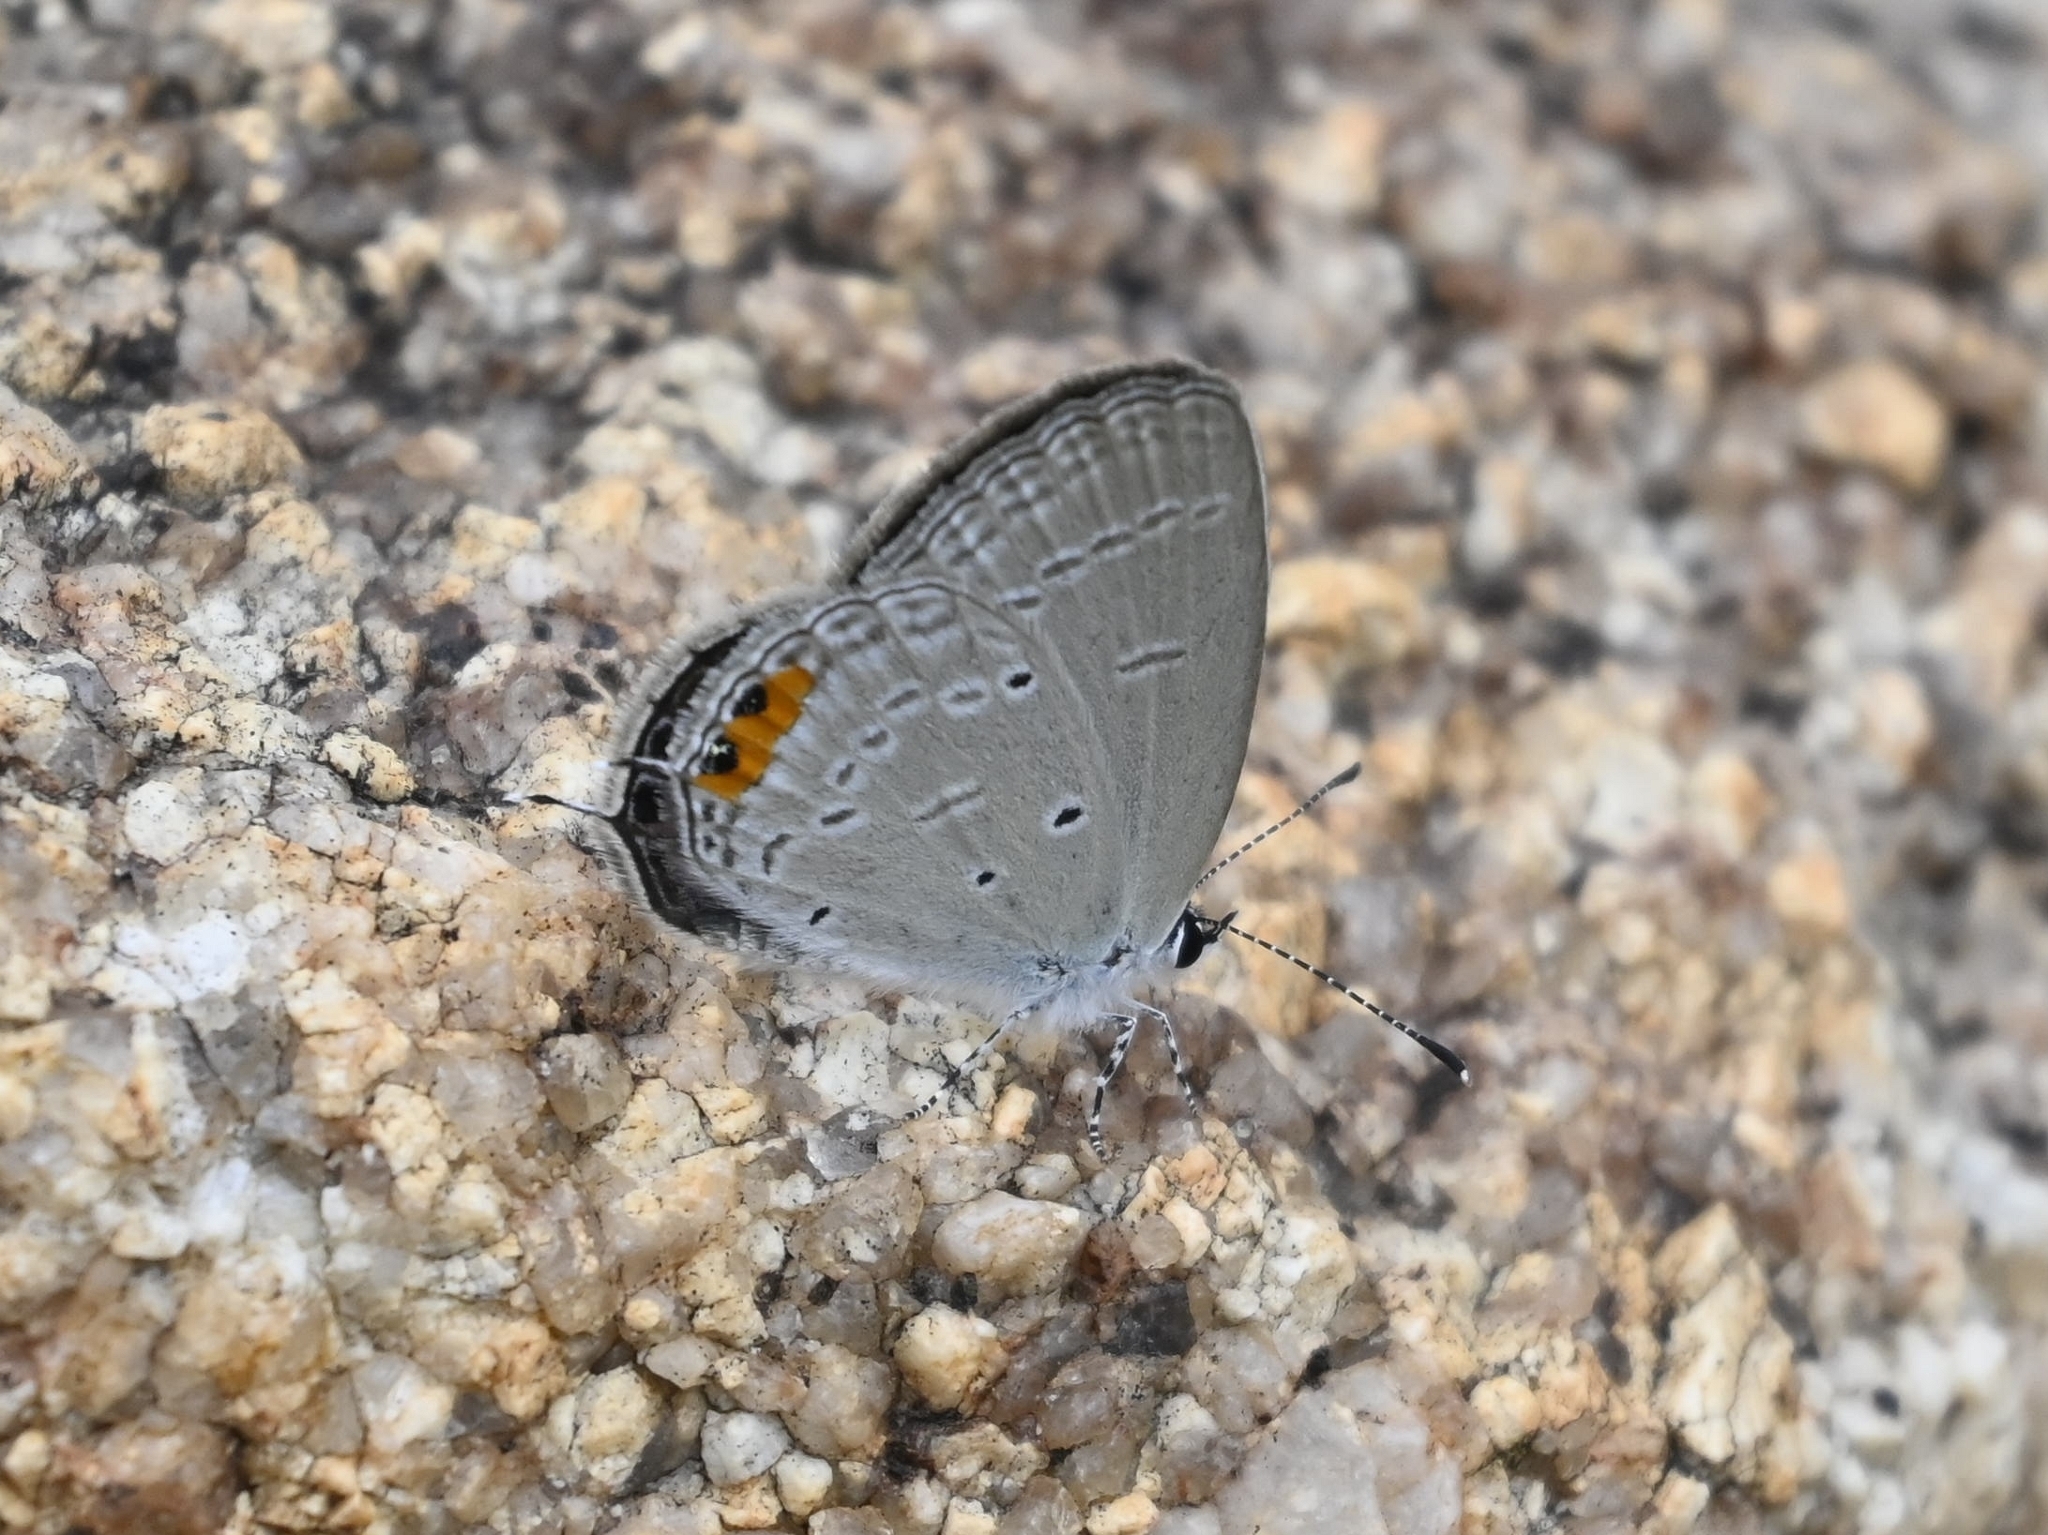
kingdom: Animalia
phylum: Arthropoda
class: Insecta
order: Lepidoptera
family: Lycaenidae
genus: Everes
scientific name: Everes lacturnus
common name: Orange-tipped pea-blue
